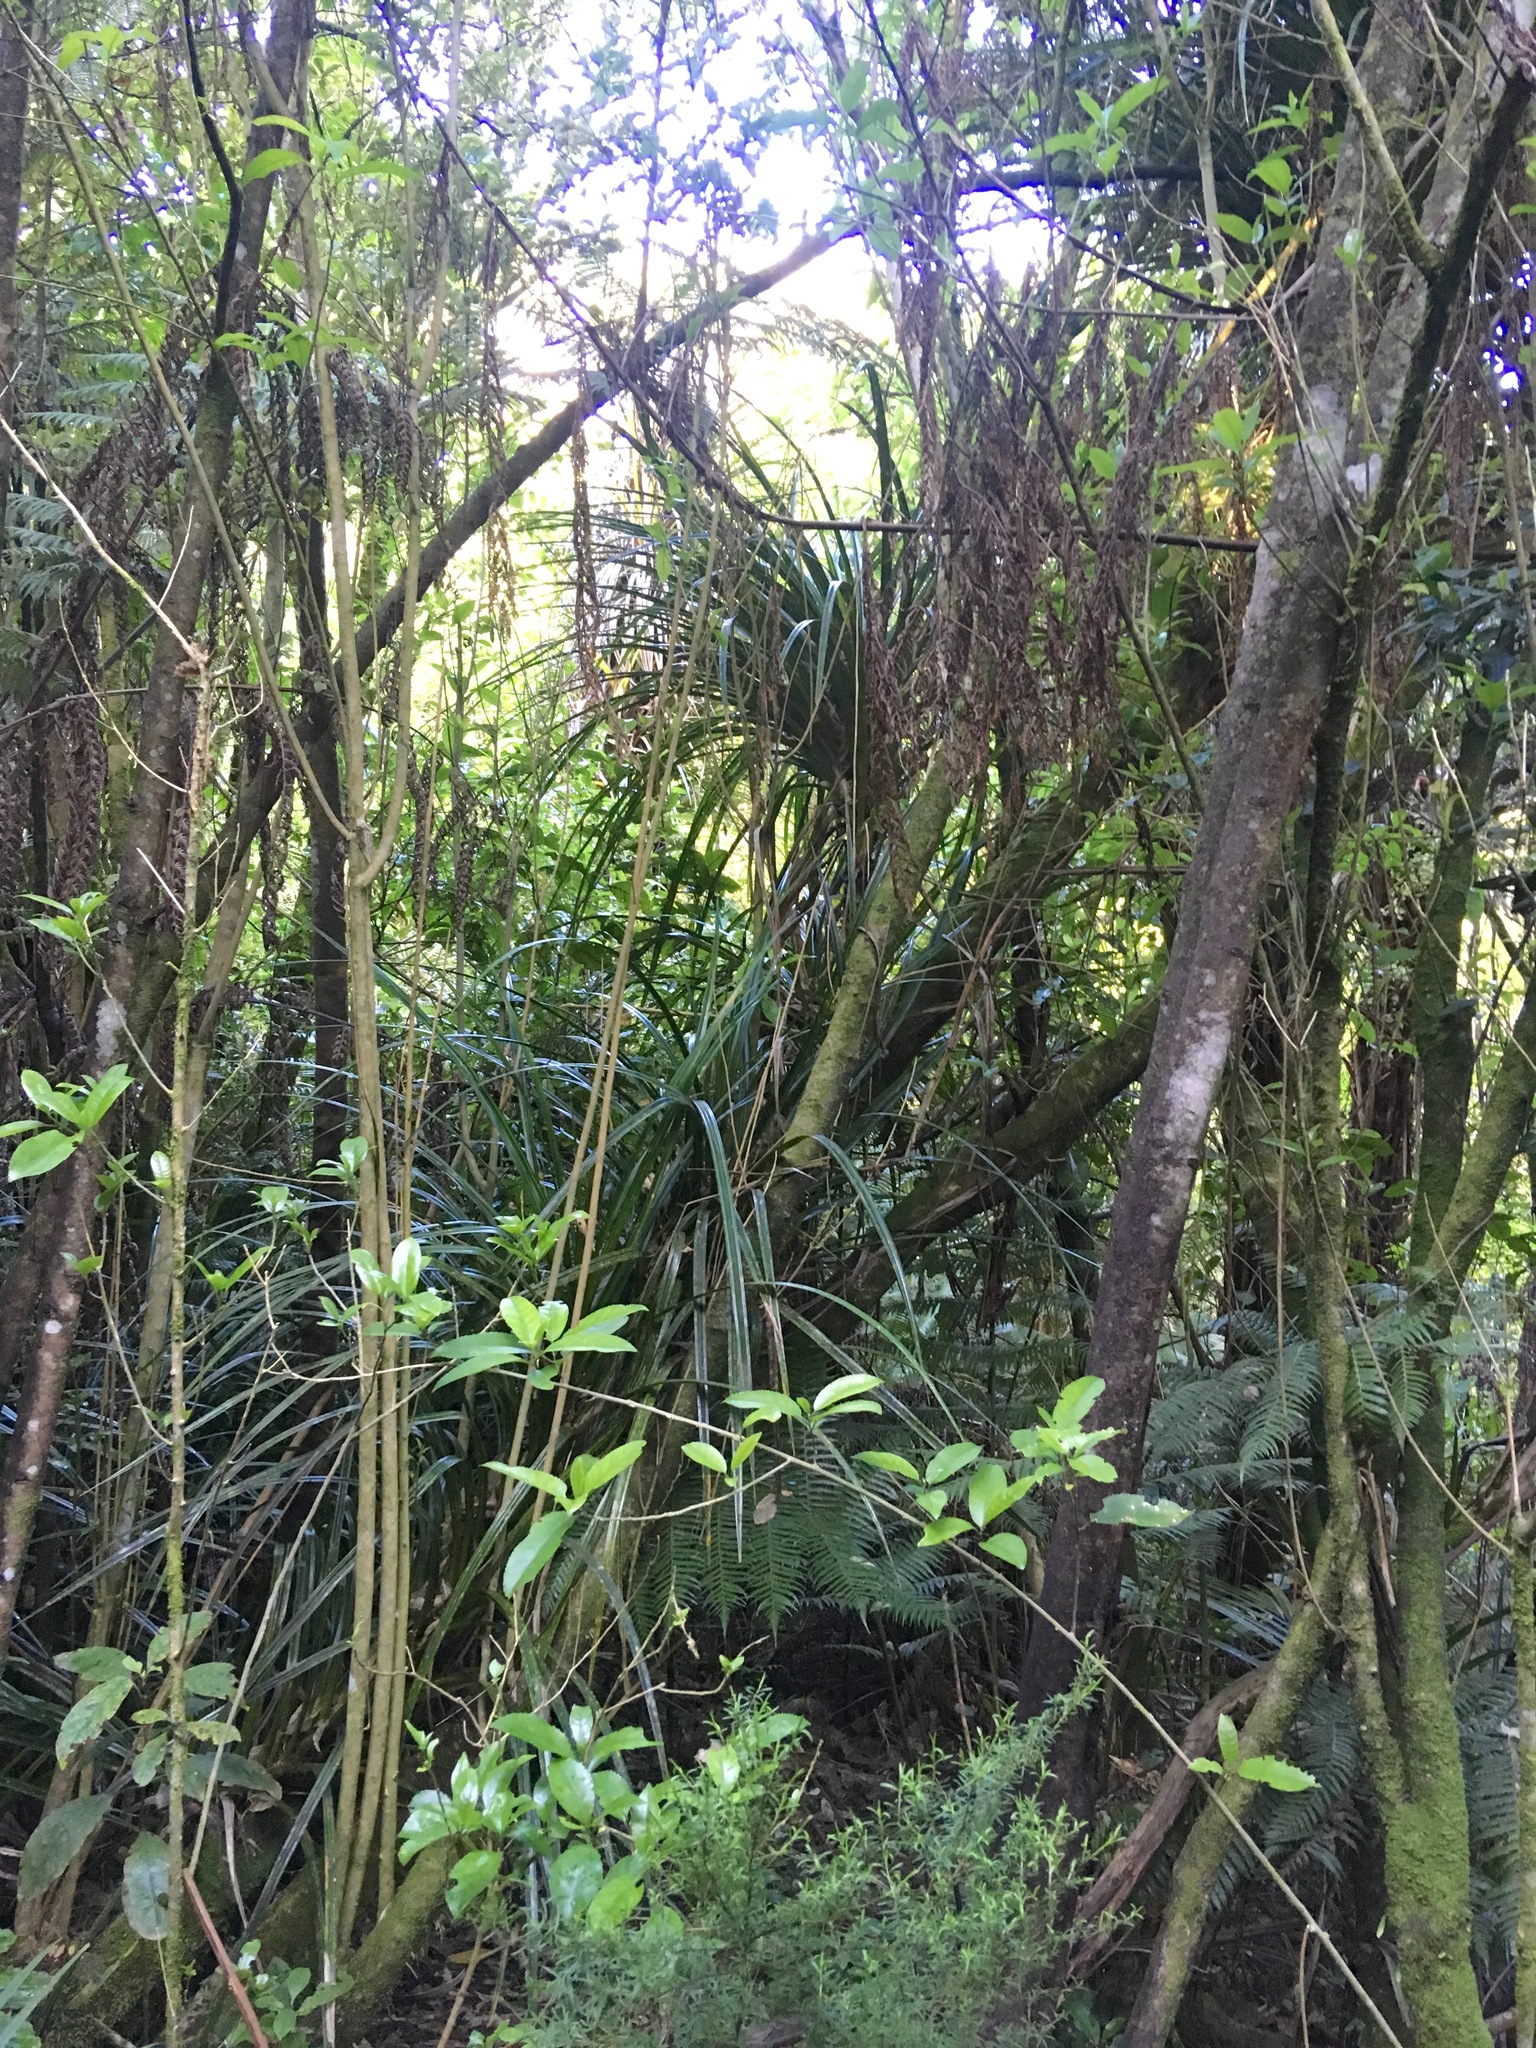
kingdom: Plantae
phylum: Tracheophyta
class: Liliopsida
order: Pandanales
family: Pandanaceae
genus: Freycinetia
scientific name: Freycinetia banksii
